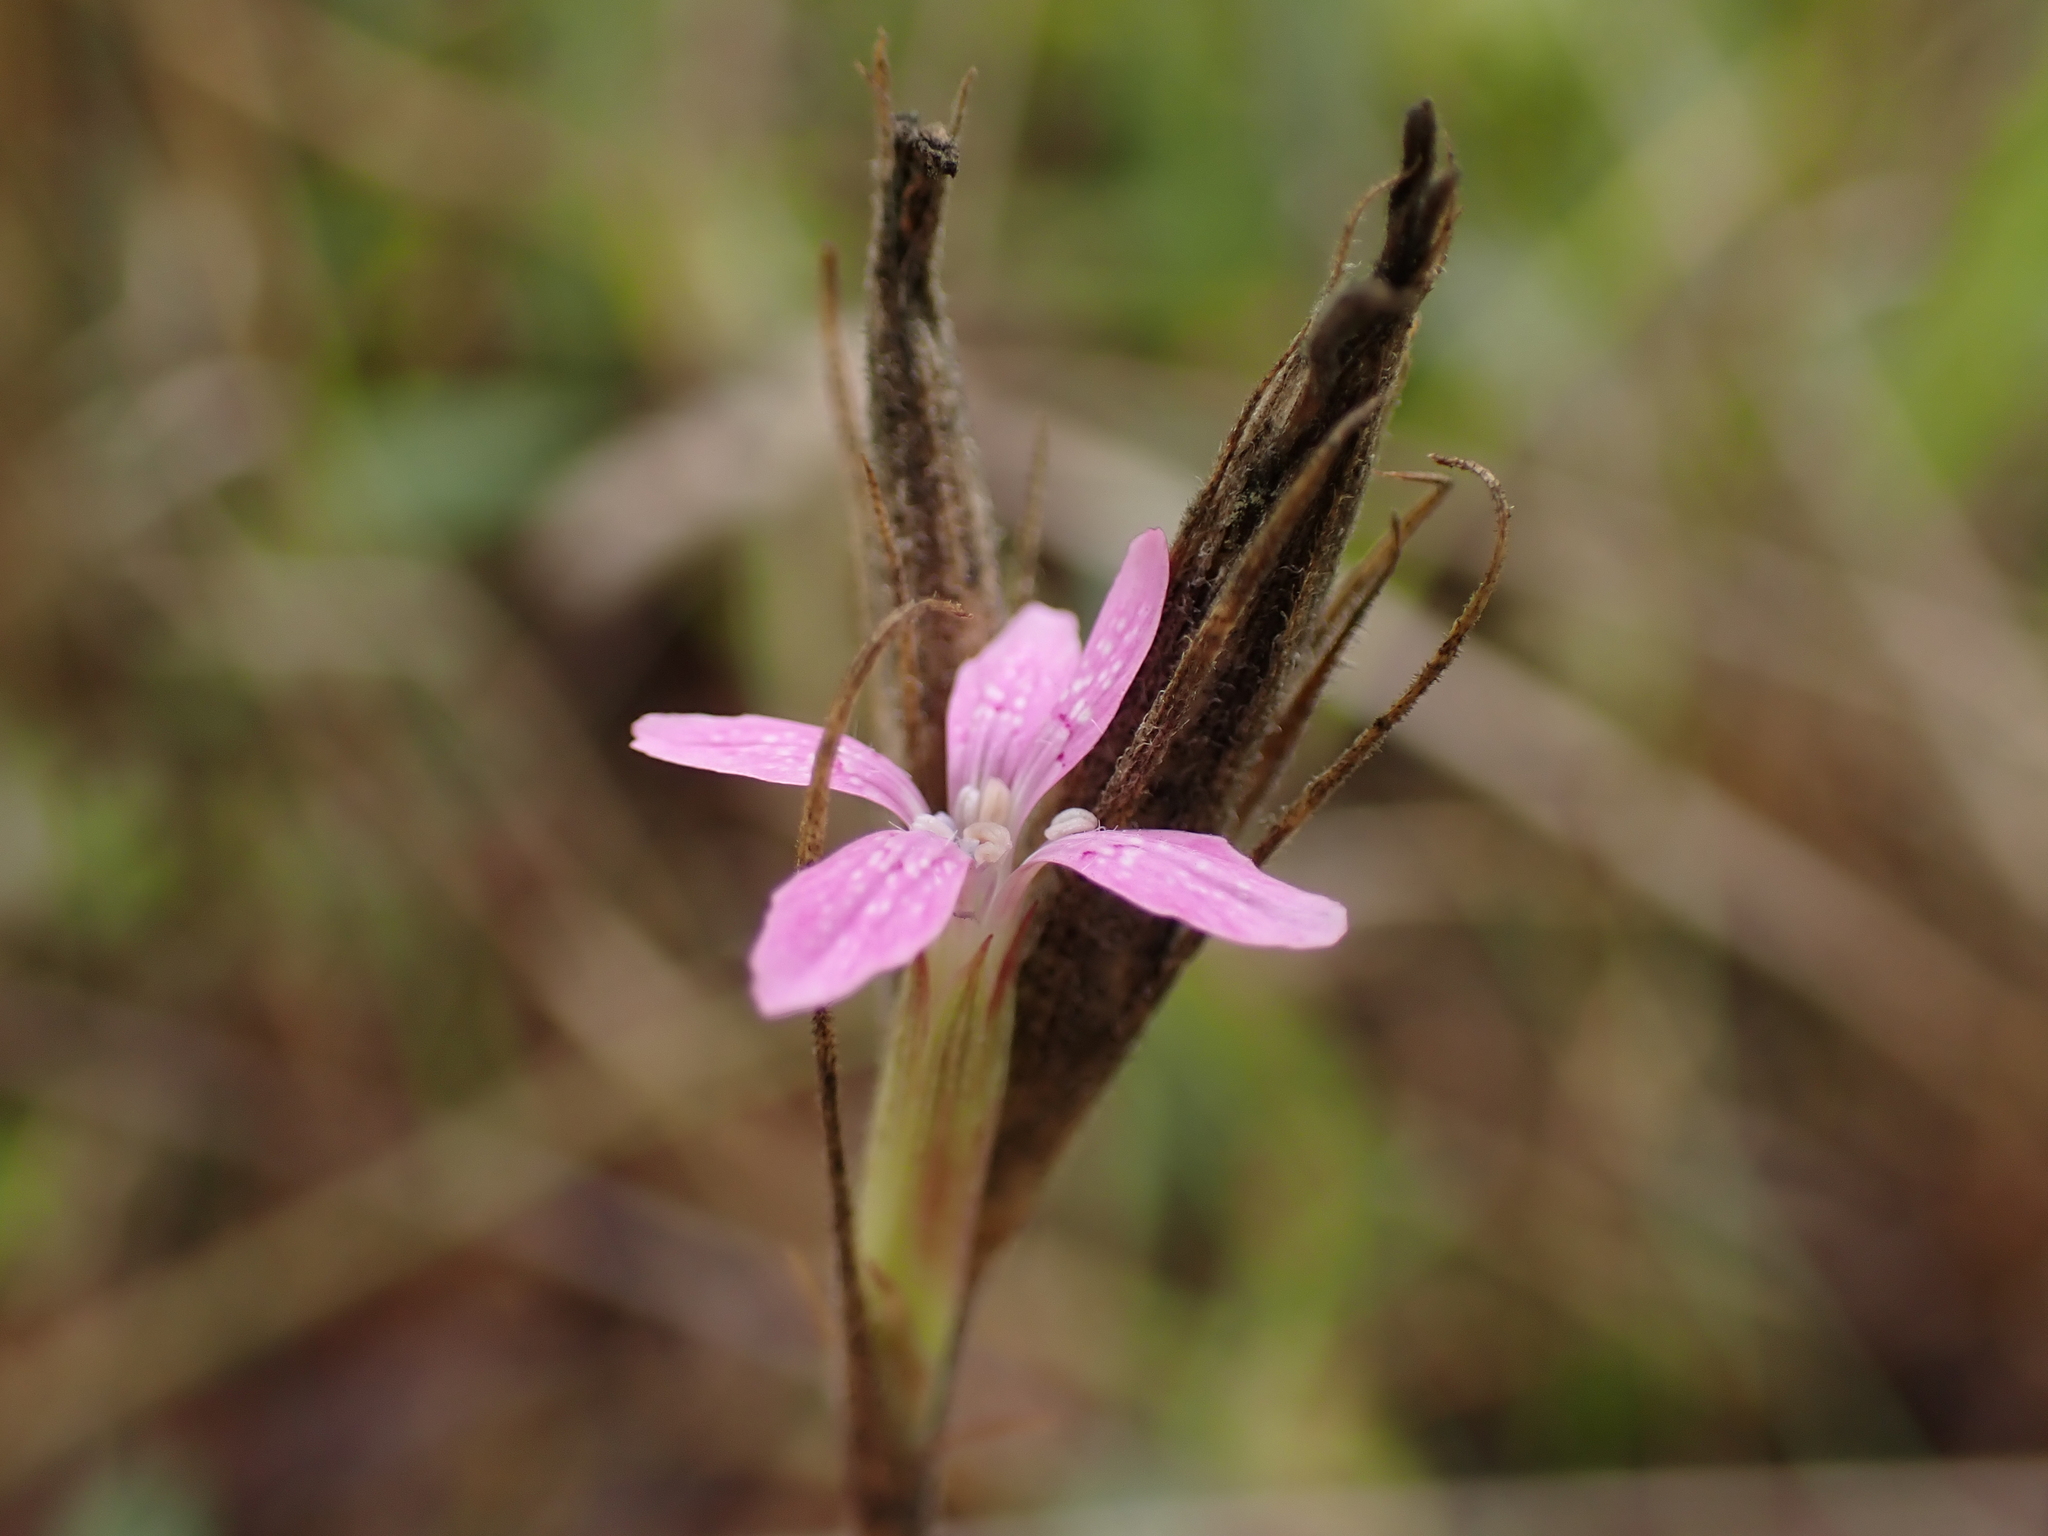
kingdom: Plantae
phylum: Tracheophyta
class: Magnoliopsida
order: Caryophyllales
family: Caryophyllaceae
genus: Dianthus
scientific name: Dianthus armeria
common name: Deptford pink
